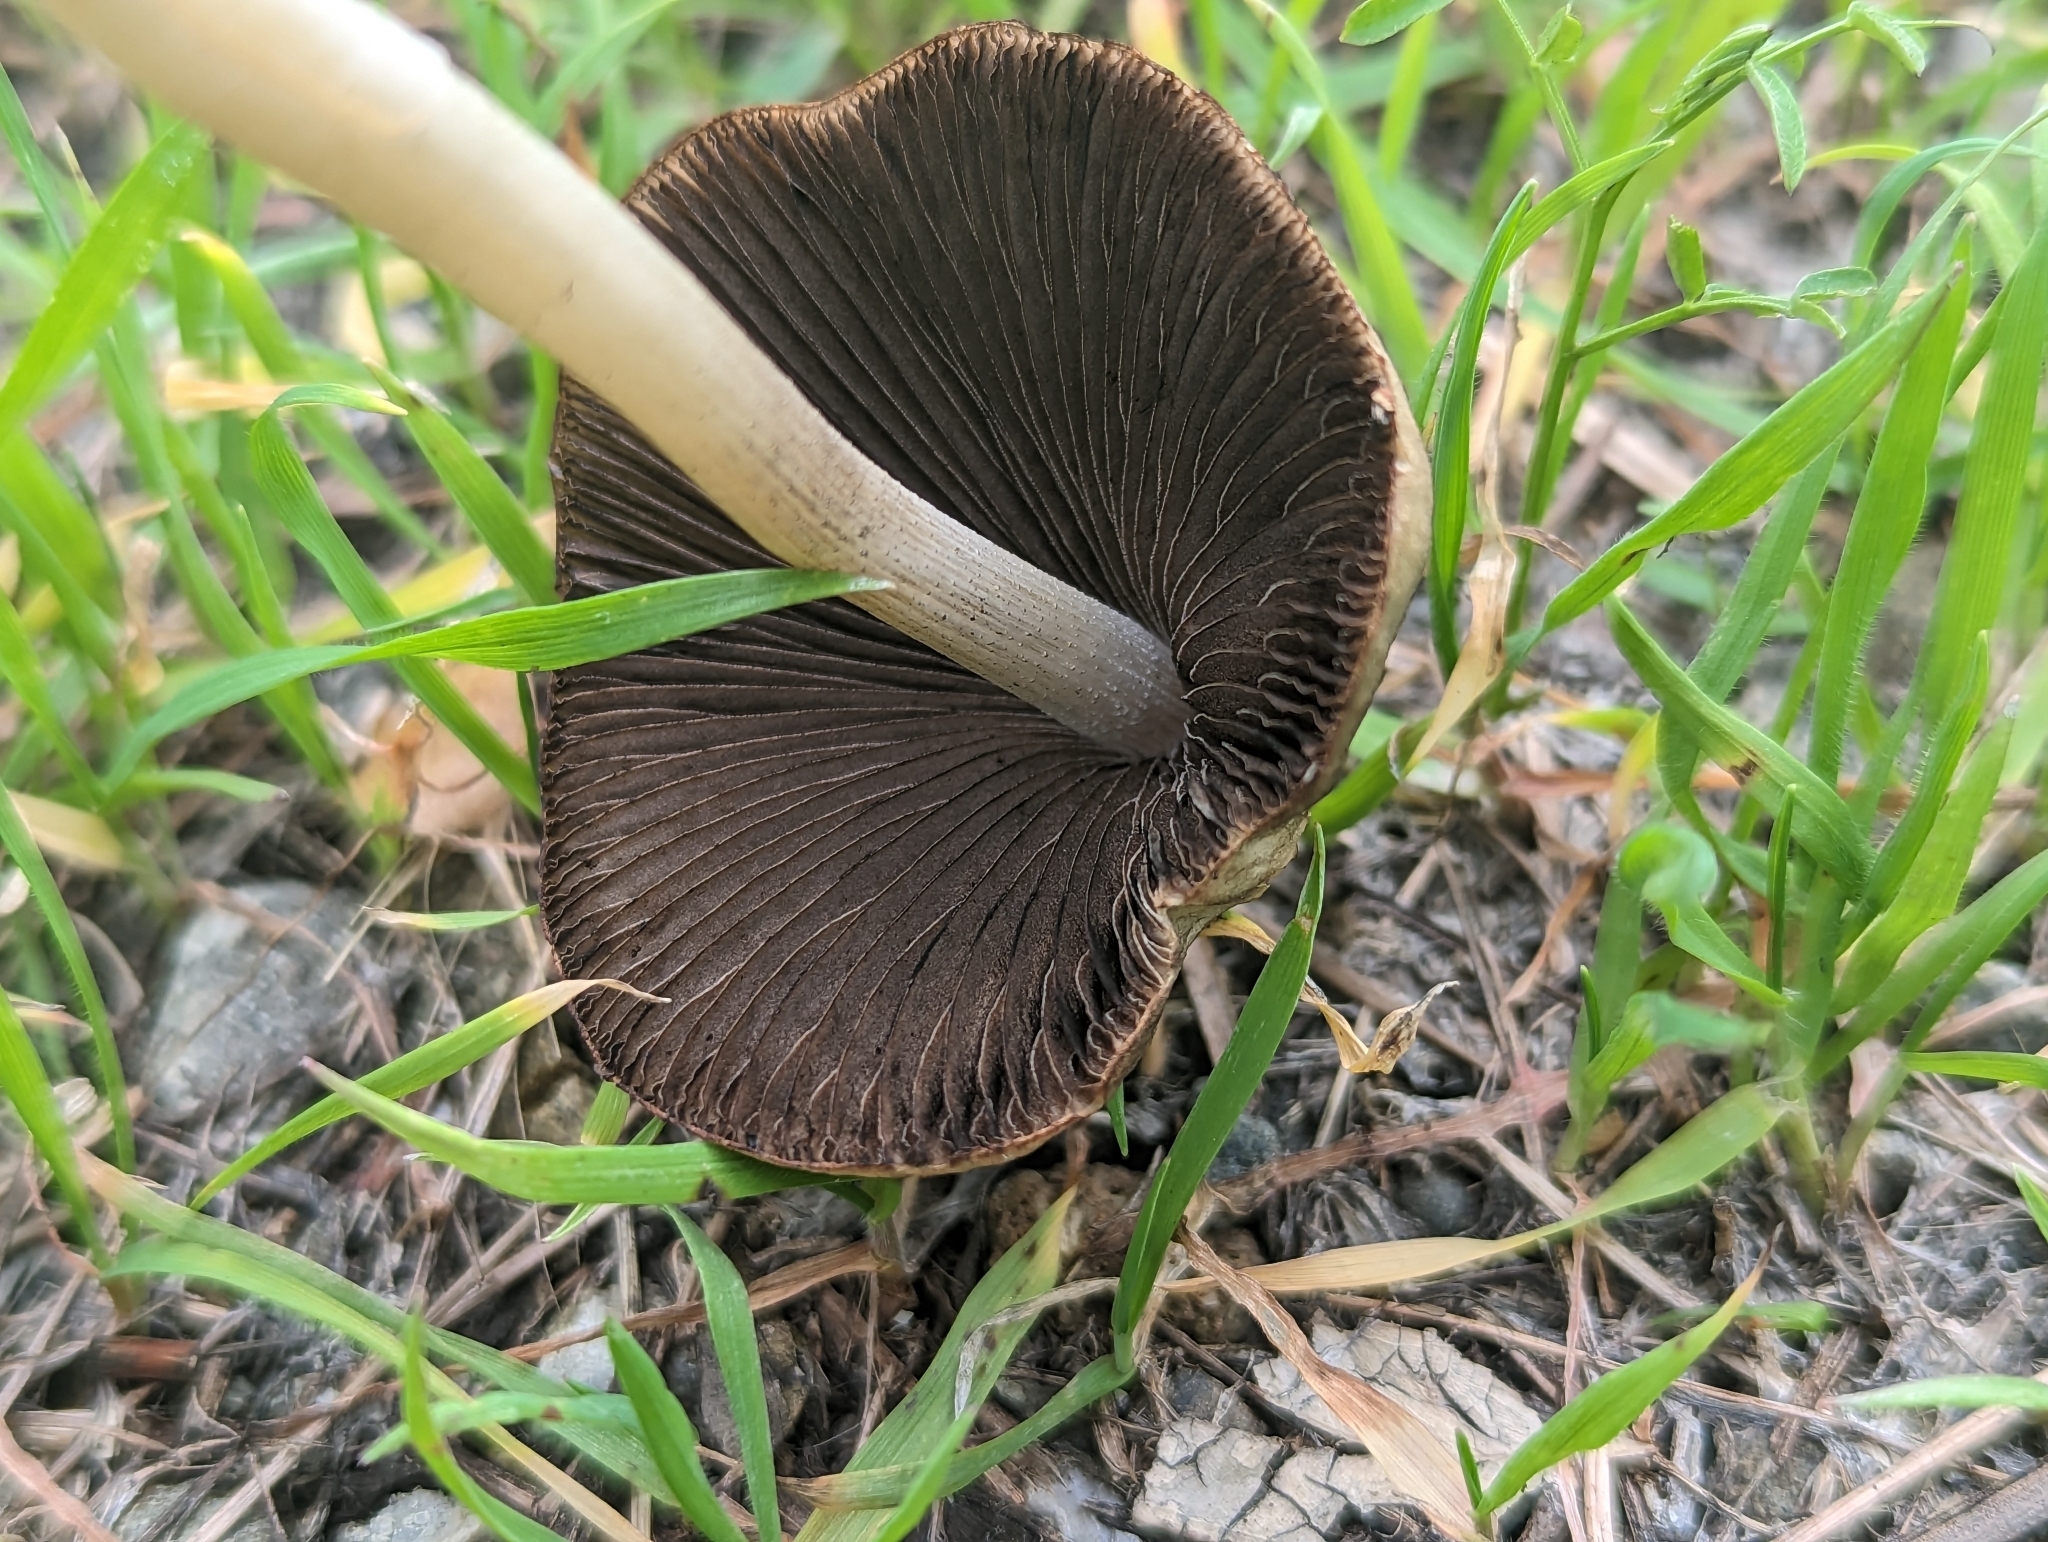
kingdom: Fungi
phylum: Basidiomycota
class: Agaricomycetes
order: Agaricales
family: Psathyrellaceae
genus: Psathyrella
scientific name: Psathyrella longipes
